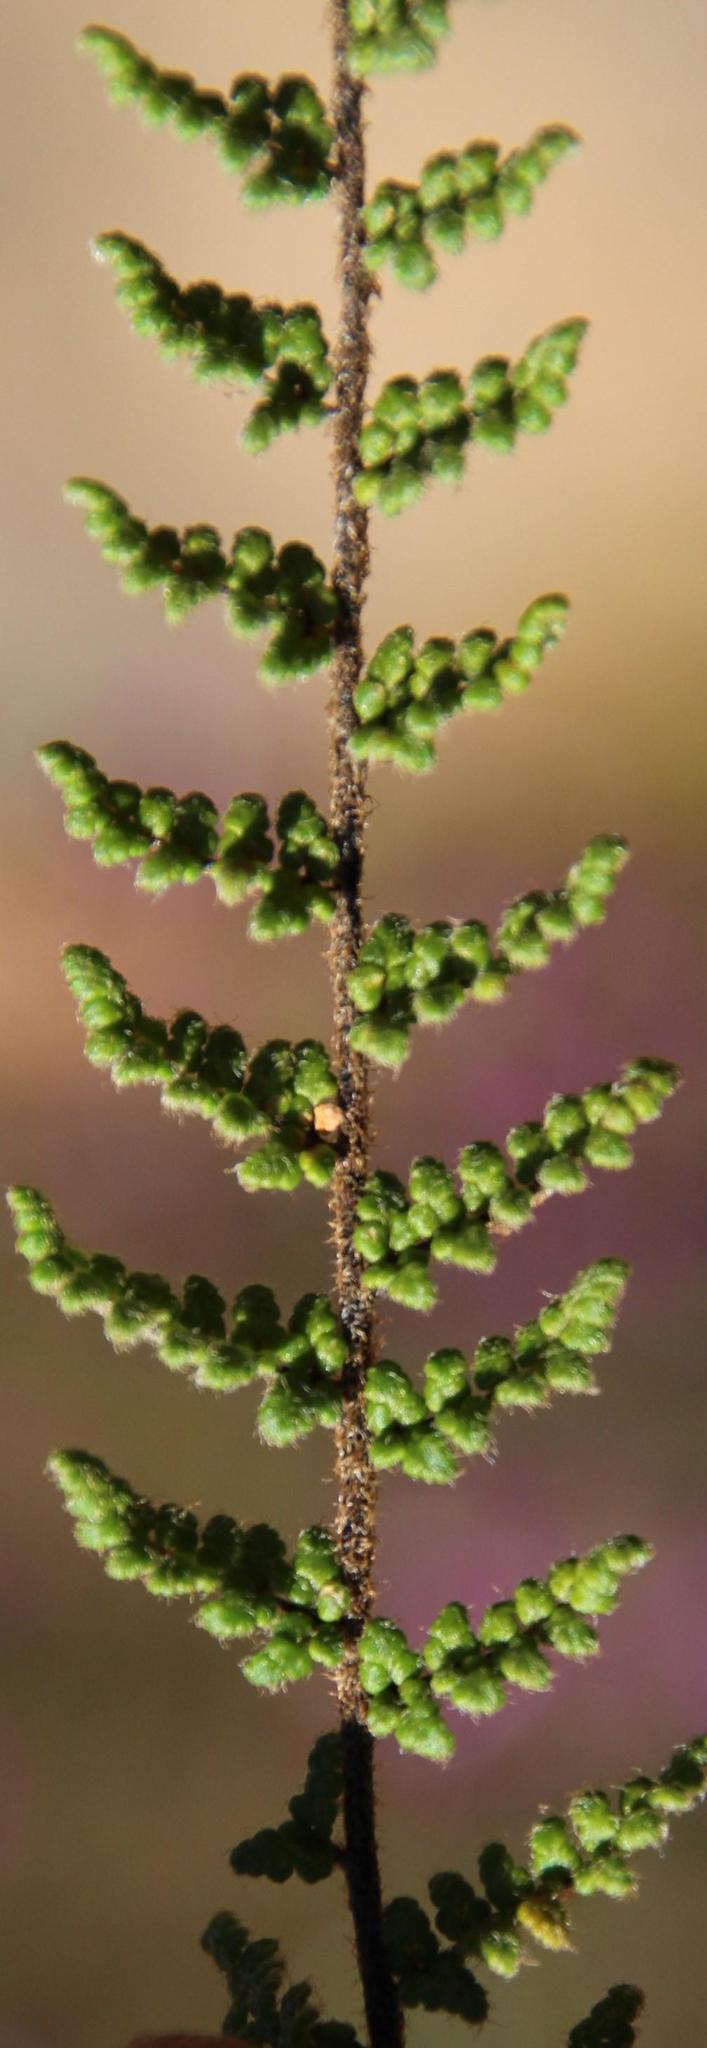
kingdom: Plantae
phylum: Tracheophyta
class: Polypodiopsida
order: Schizaeales
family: Anemiaceae
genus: Anemia
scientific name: Anemia caffrorum
